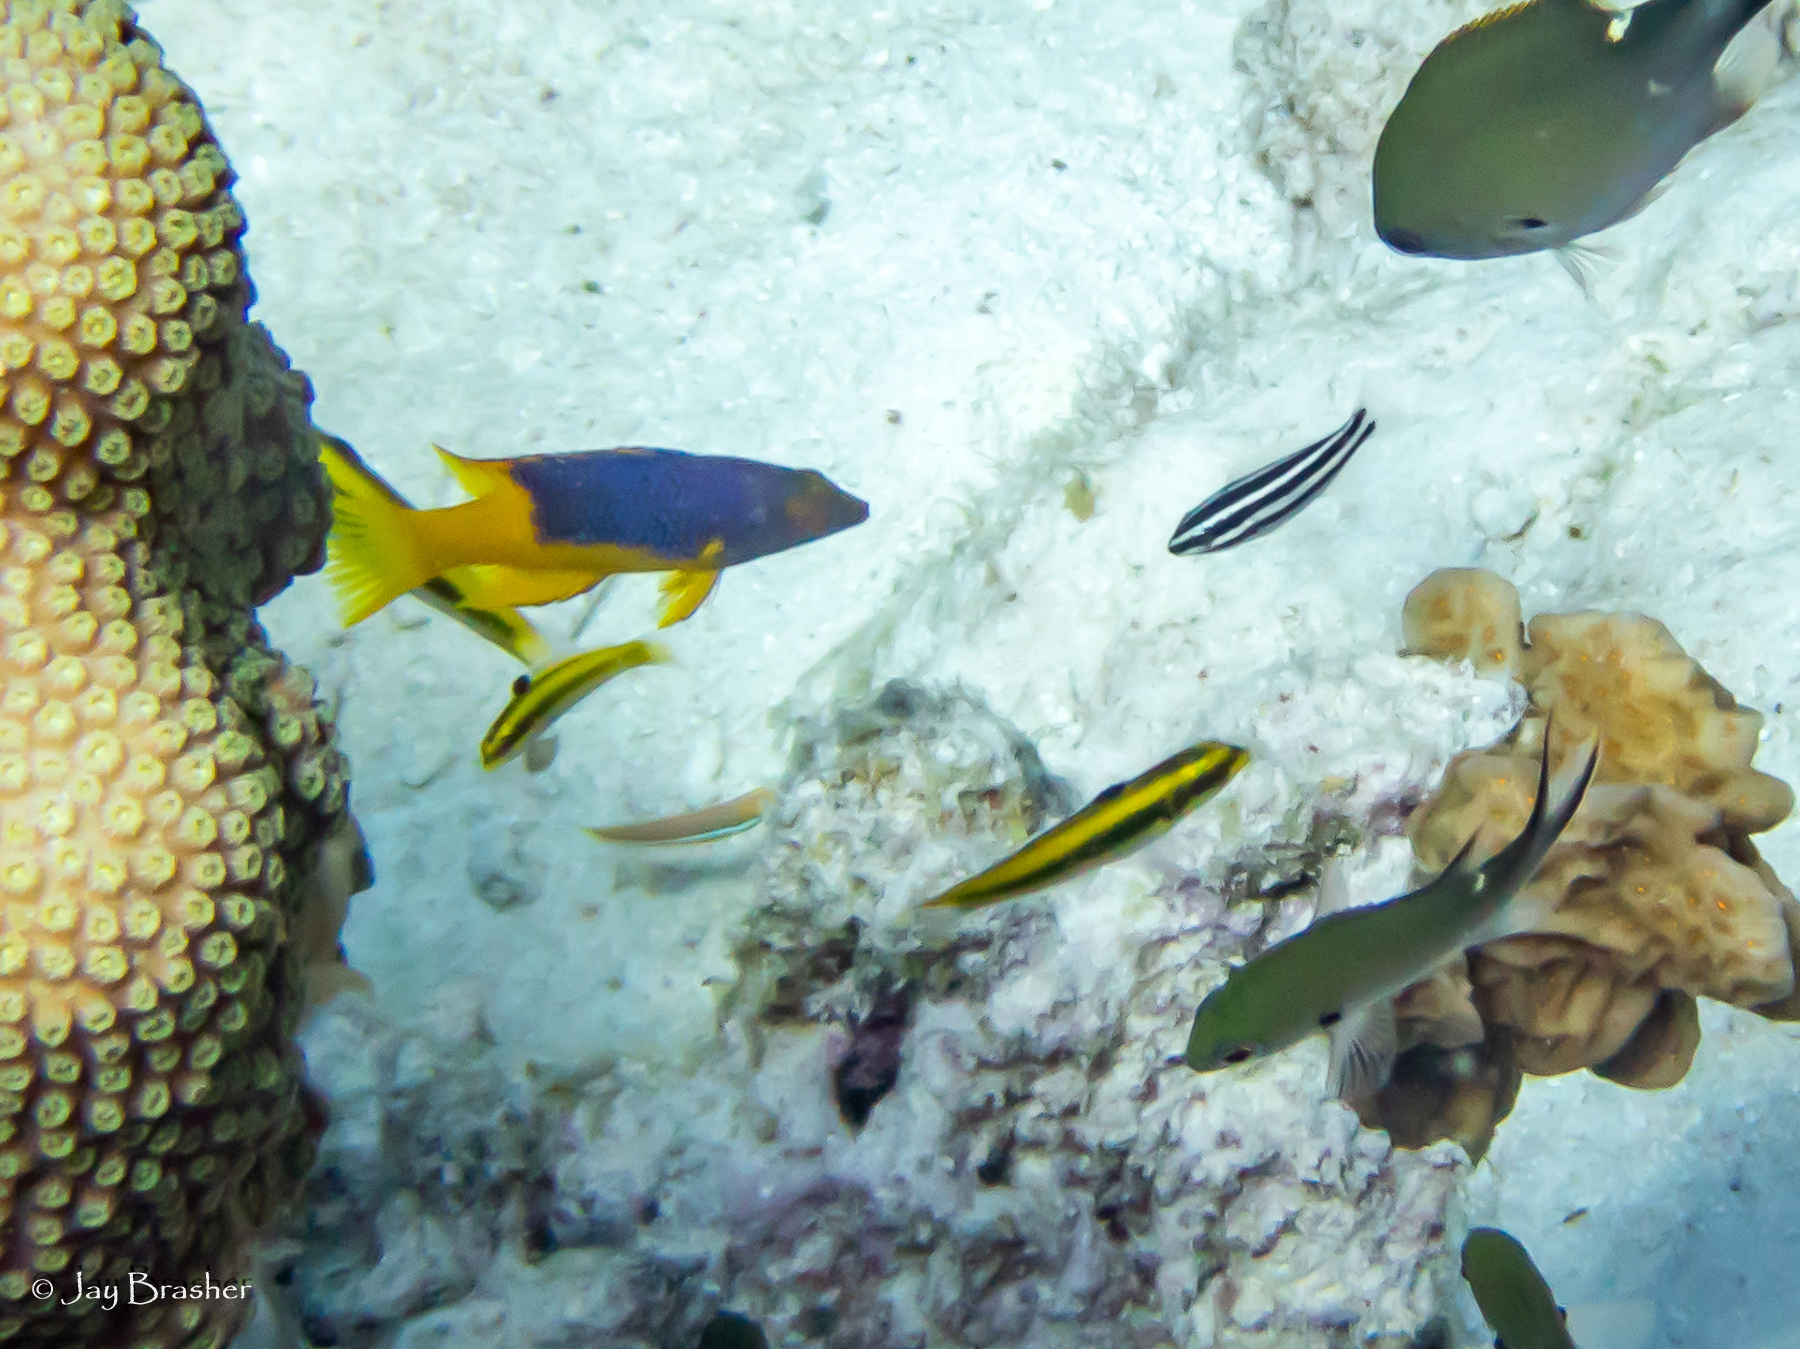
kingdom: Animalia
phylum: Chordata
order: Perciformes
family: Scaridae
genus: Scarus
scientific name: Scarus iseri
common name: Striped parrotfish
